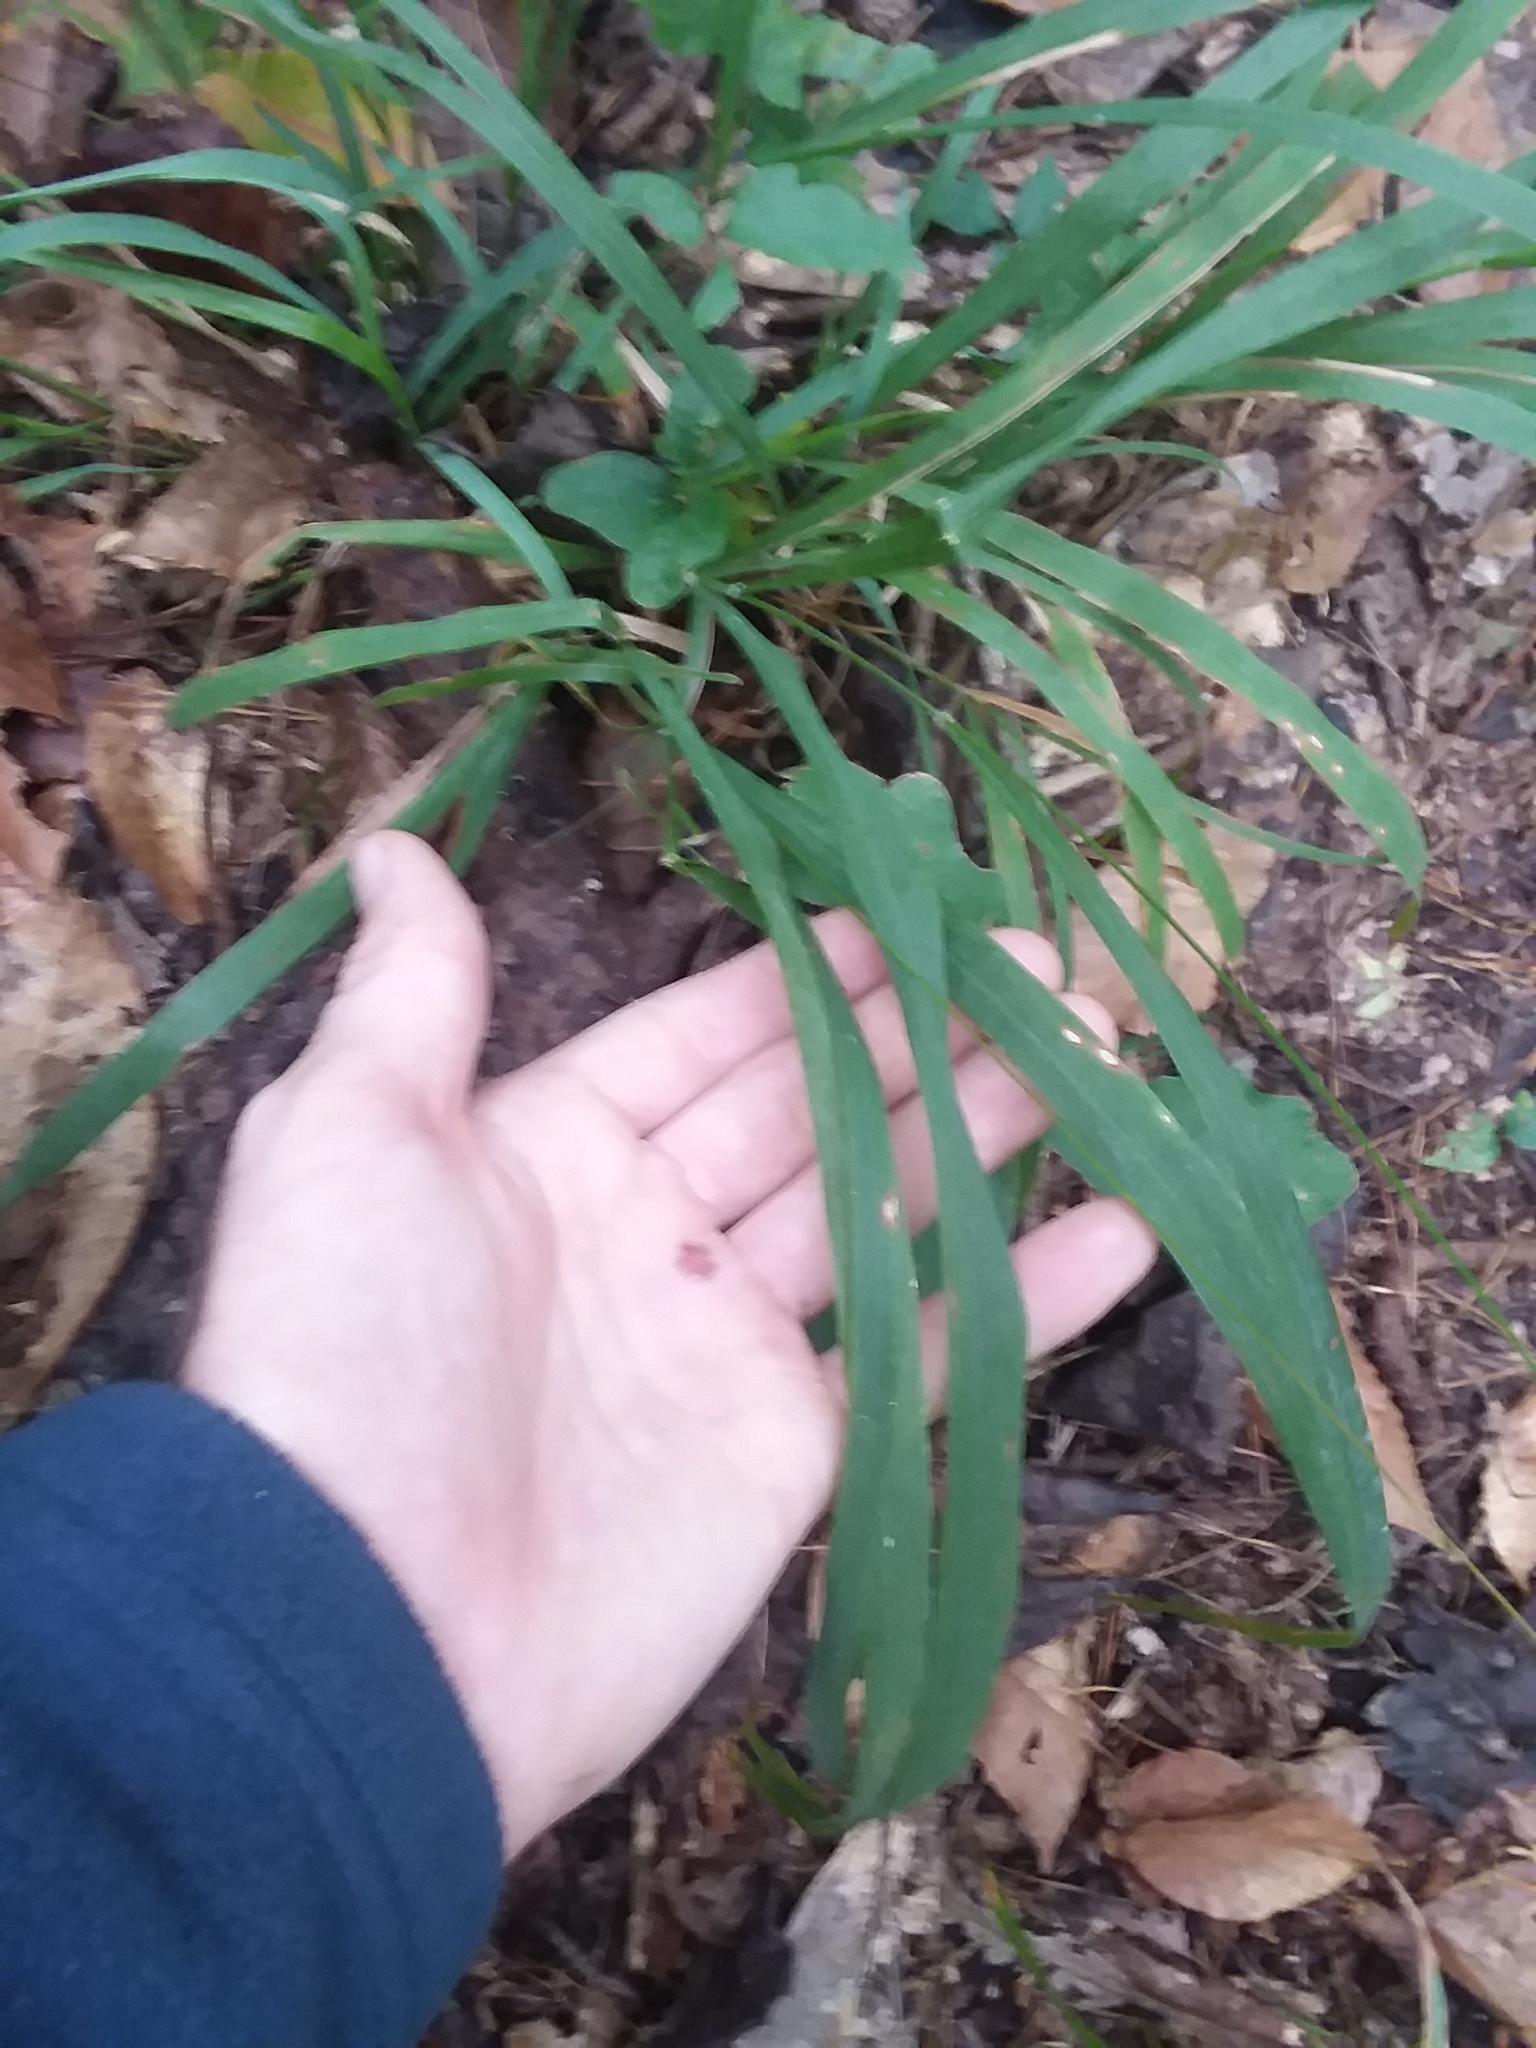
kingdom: Plantae
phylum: Tracheophyta
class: Liliopsida
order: Poales
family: Poaceae
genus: Chasmanthium
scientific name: Chasmanthium laxum
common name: Slender chasmanthium
